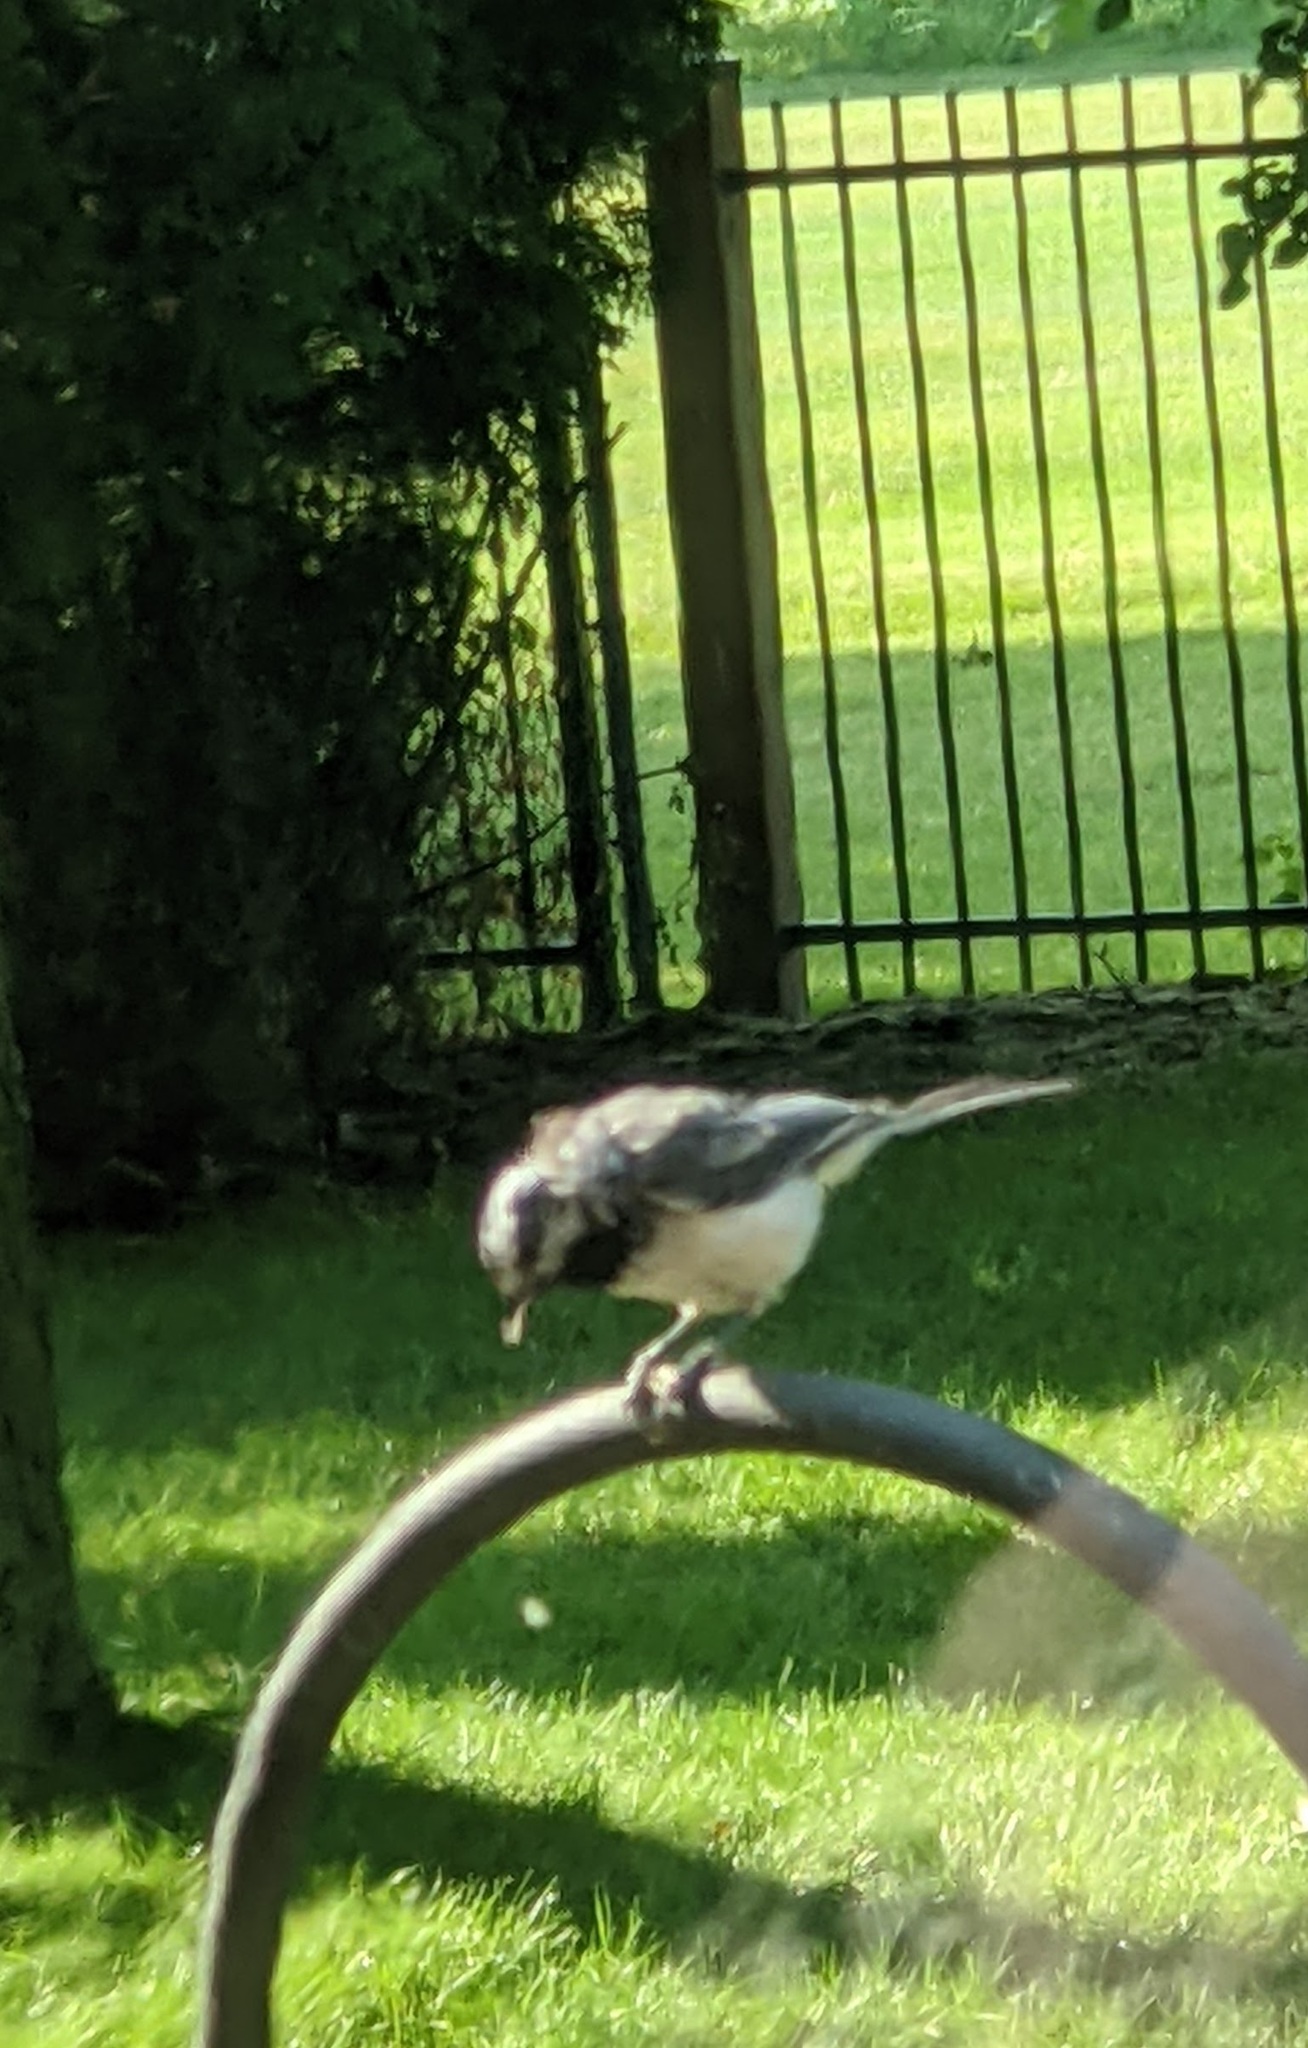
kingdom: Animalia
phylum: Chordata
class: Aves
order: Passeriformes
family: Paridae
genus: Poecile
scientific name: Poecile atricapillus
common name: Black-capped chickadee
